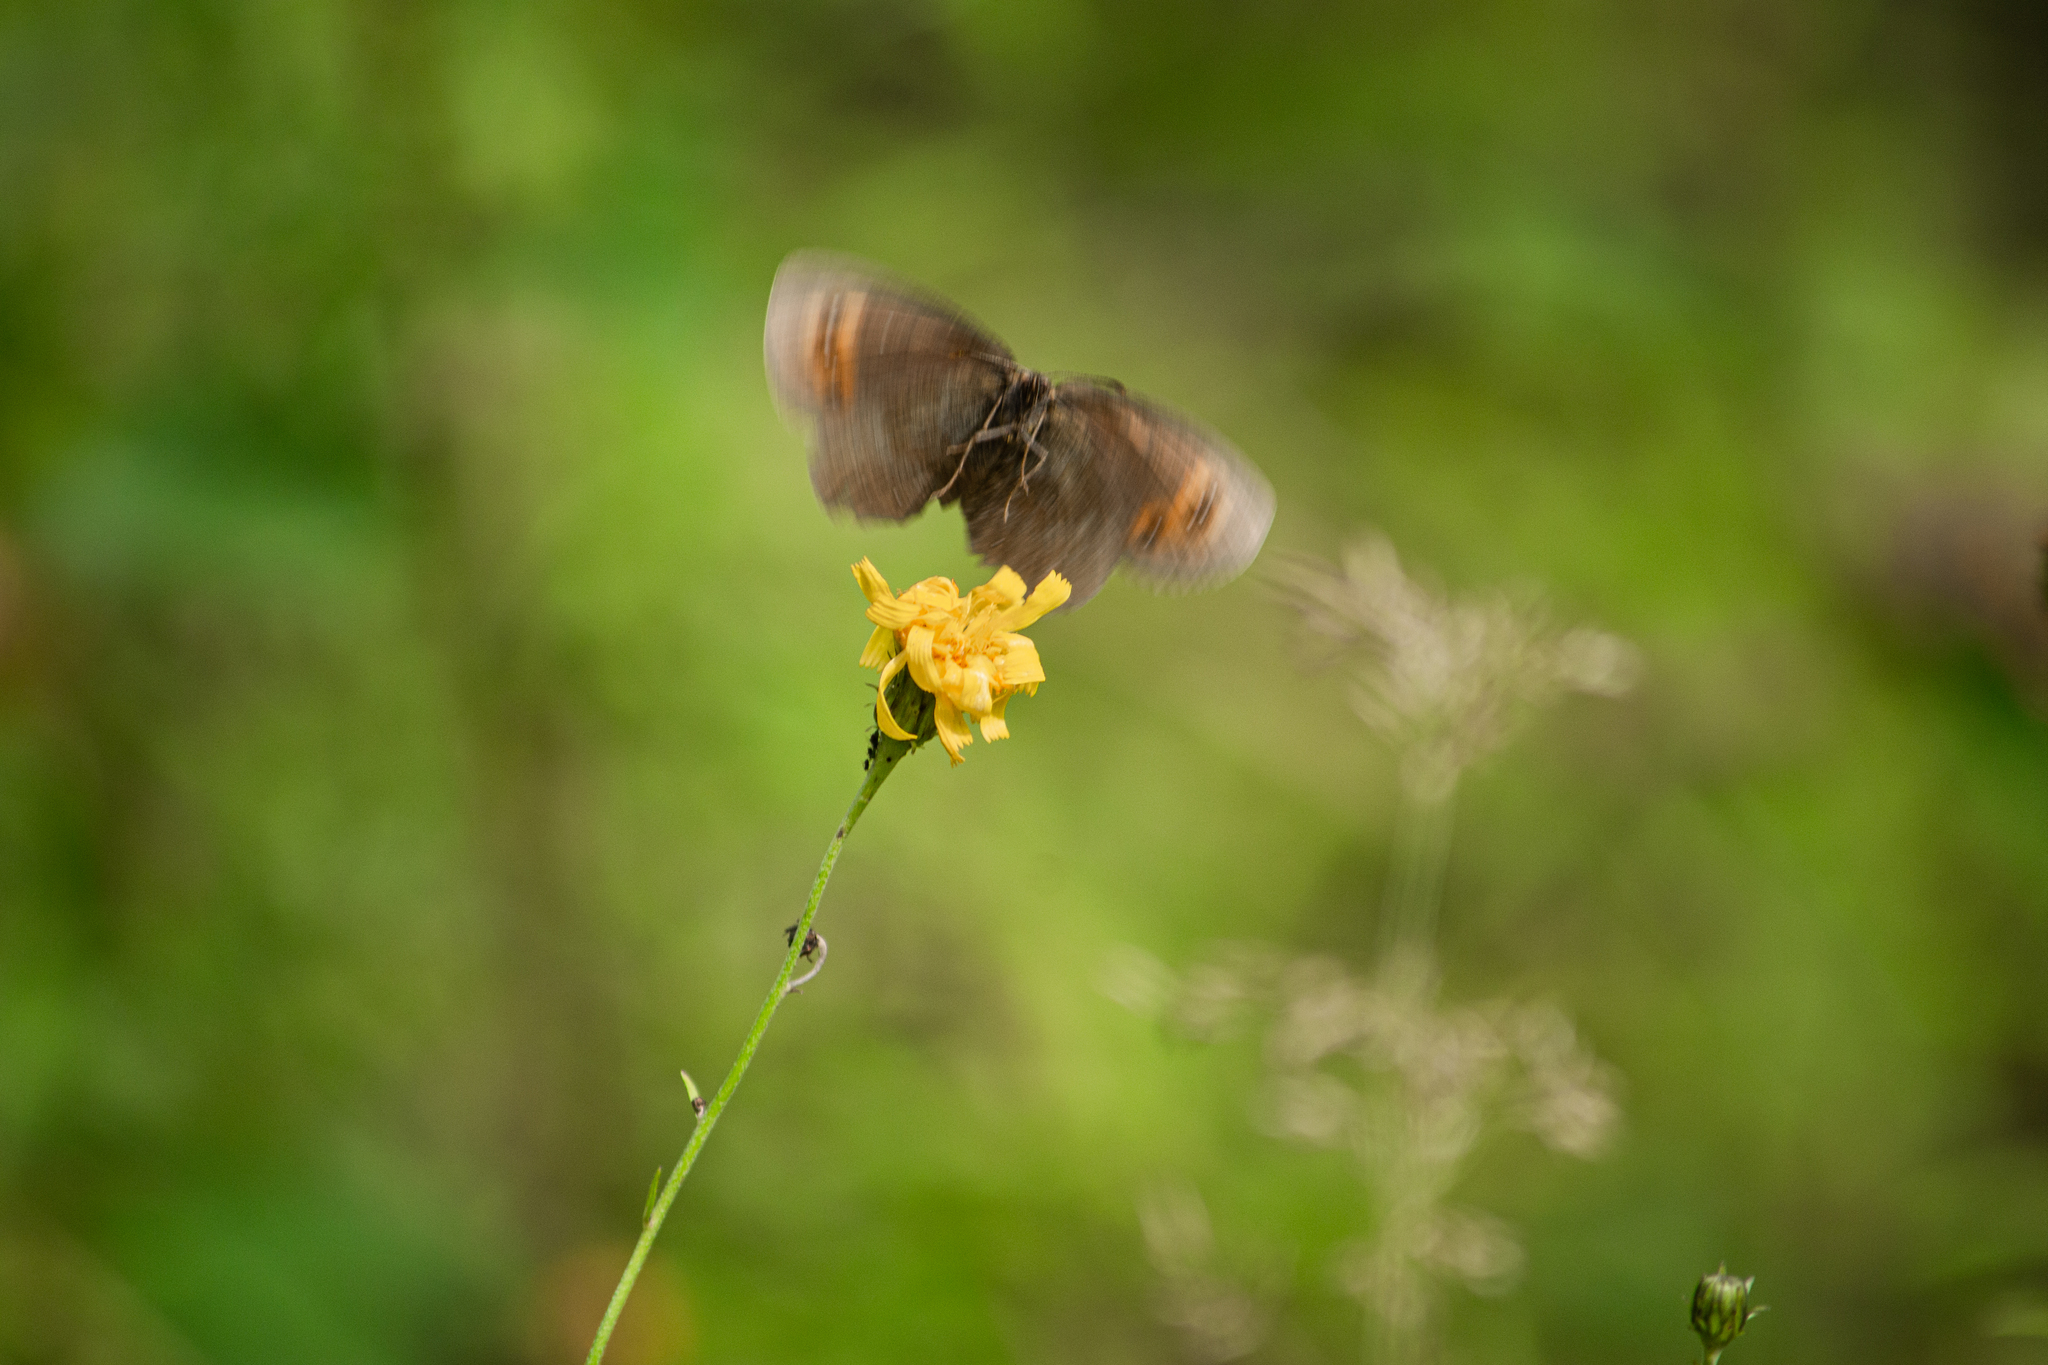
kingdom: Animalia
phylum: Arthropoda
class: Insecta
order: Lepidoptera
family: Nymphalidae
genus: Erebia
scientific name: Erebia aethiops
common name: Scotch argus
